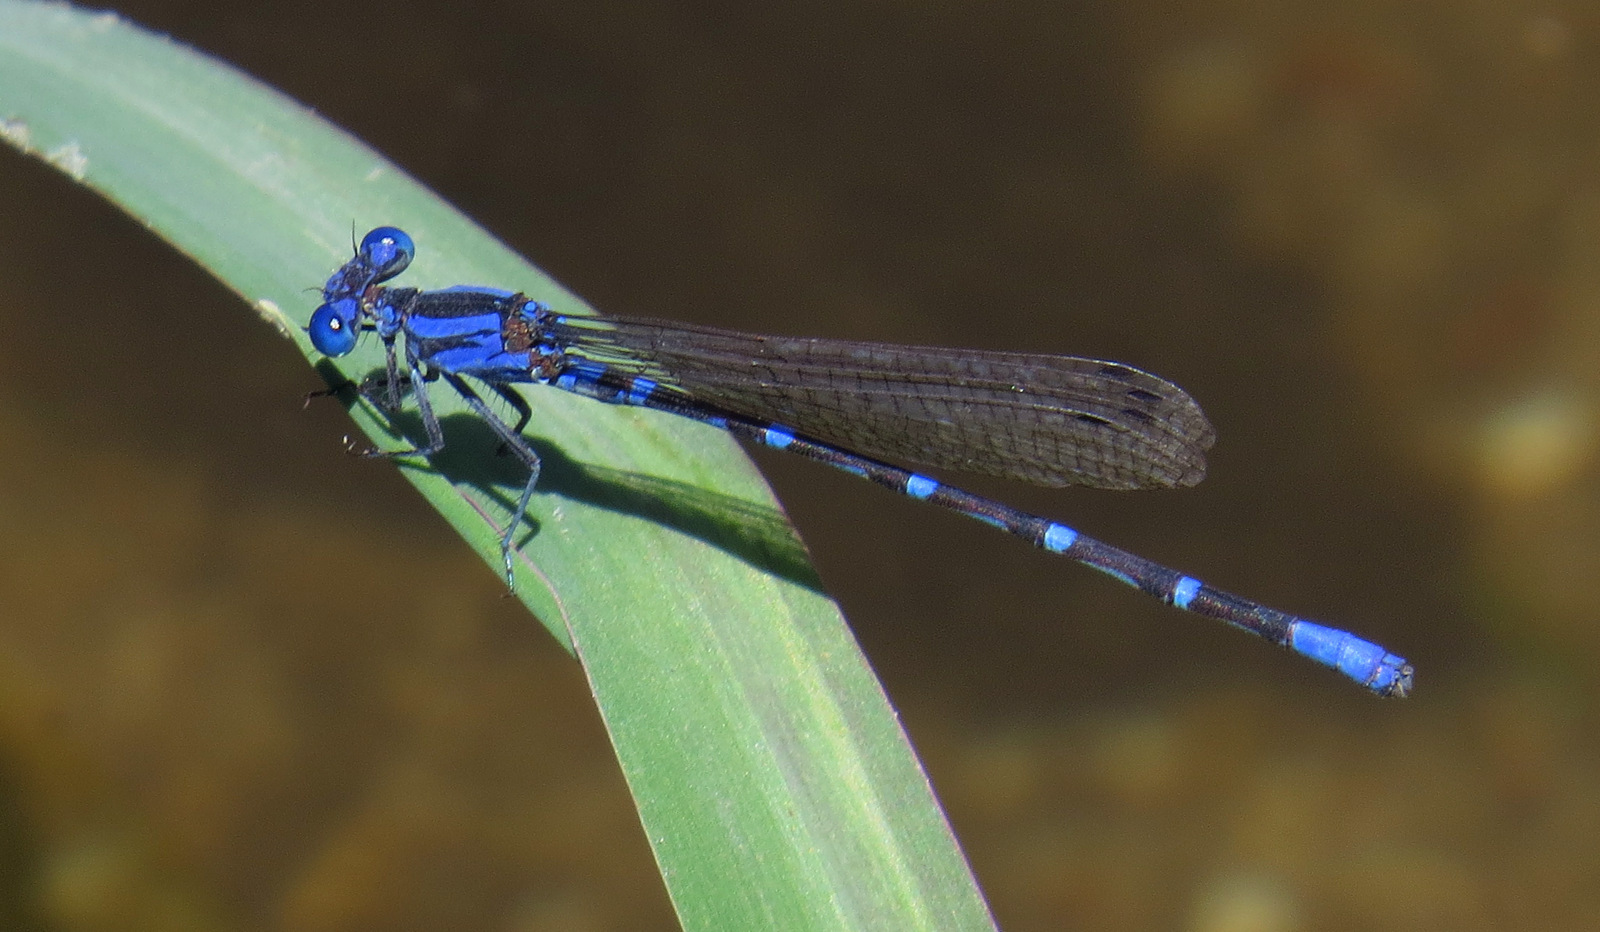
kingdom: Animalia
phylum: Arthropoda
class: Insecta
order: Odonata
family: Coenagrionidae
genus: Argia
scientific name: Argia sedula
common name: Blue-ringed dancer
